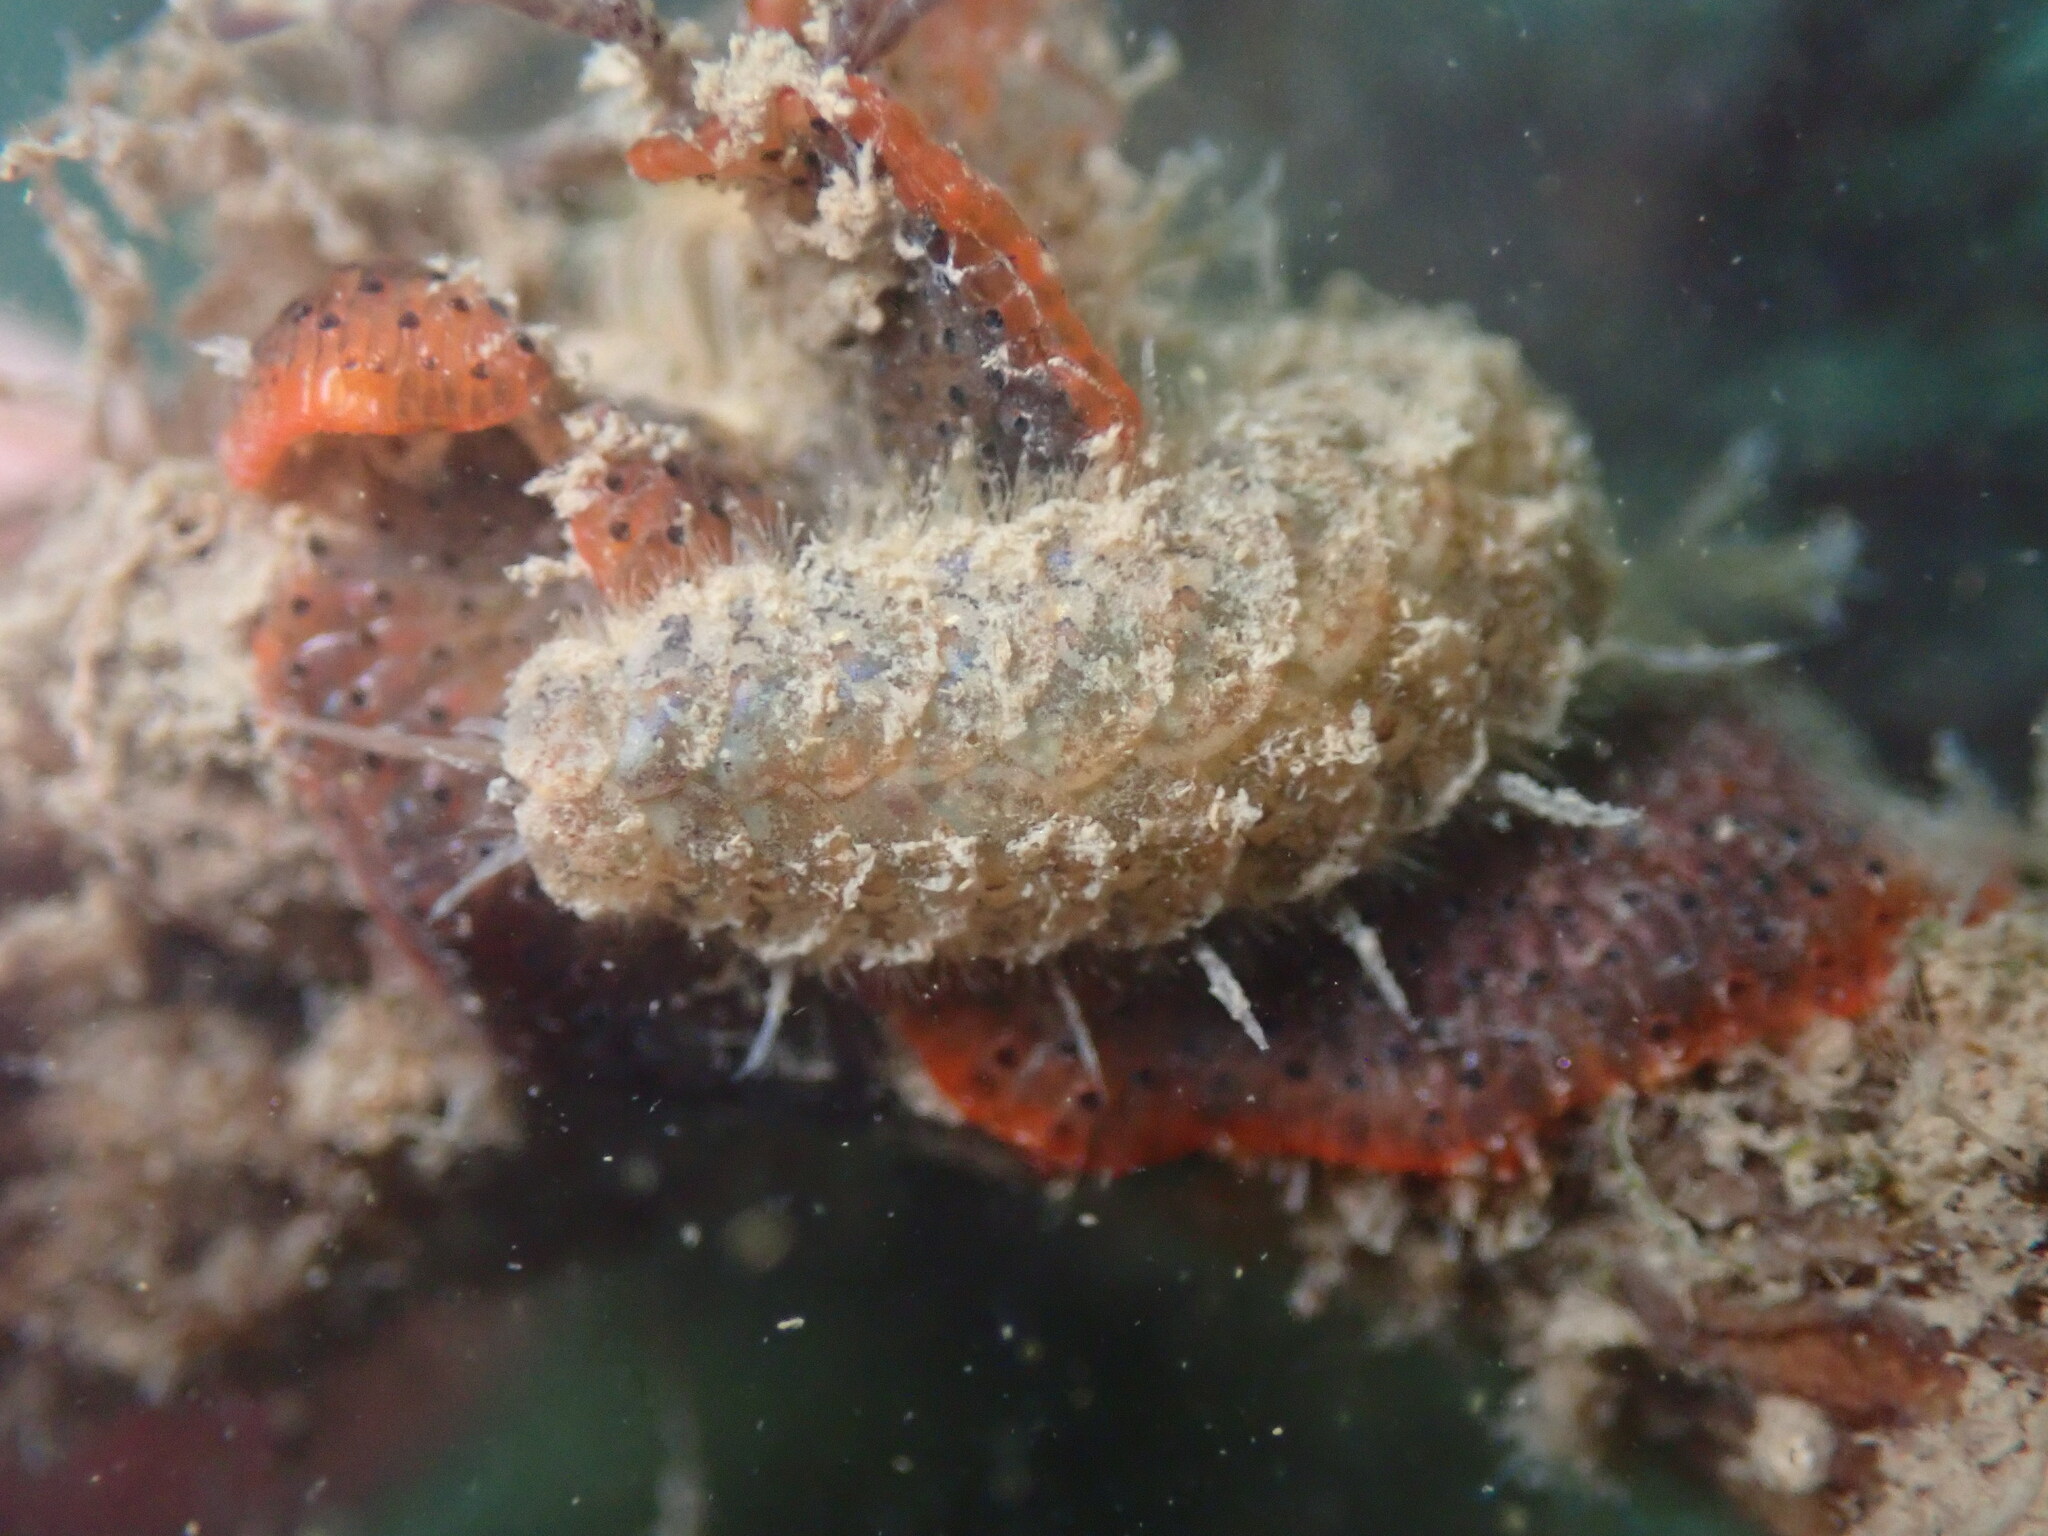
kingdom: Animalia
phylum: Annelida
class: Polychaeta
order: Phyllodocida
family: Polynoidae
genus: Harmothoe
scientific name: Harmothoe imbricata
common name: Fifteen-scaled worm
